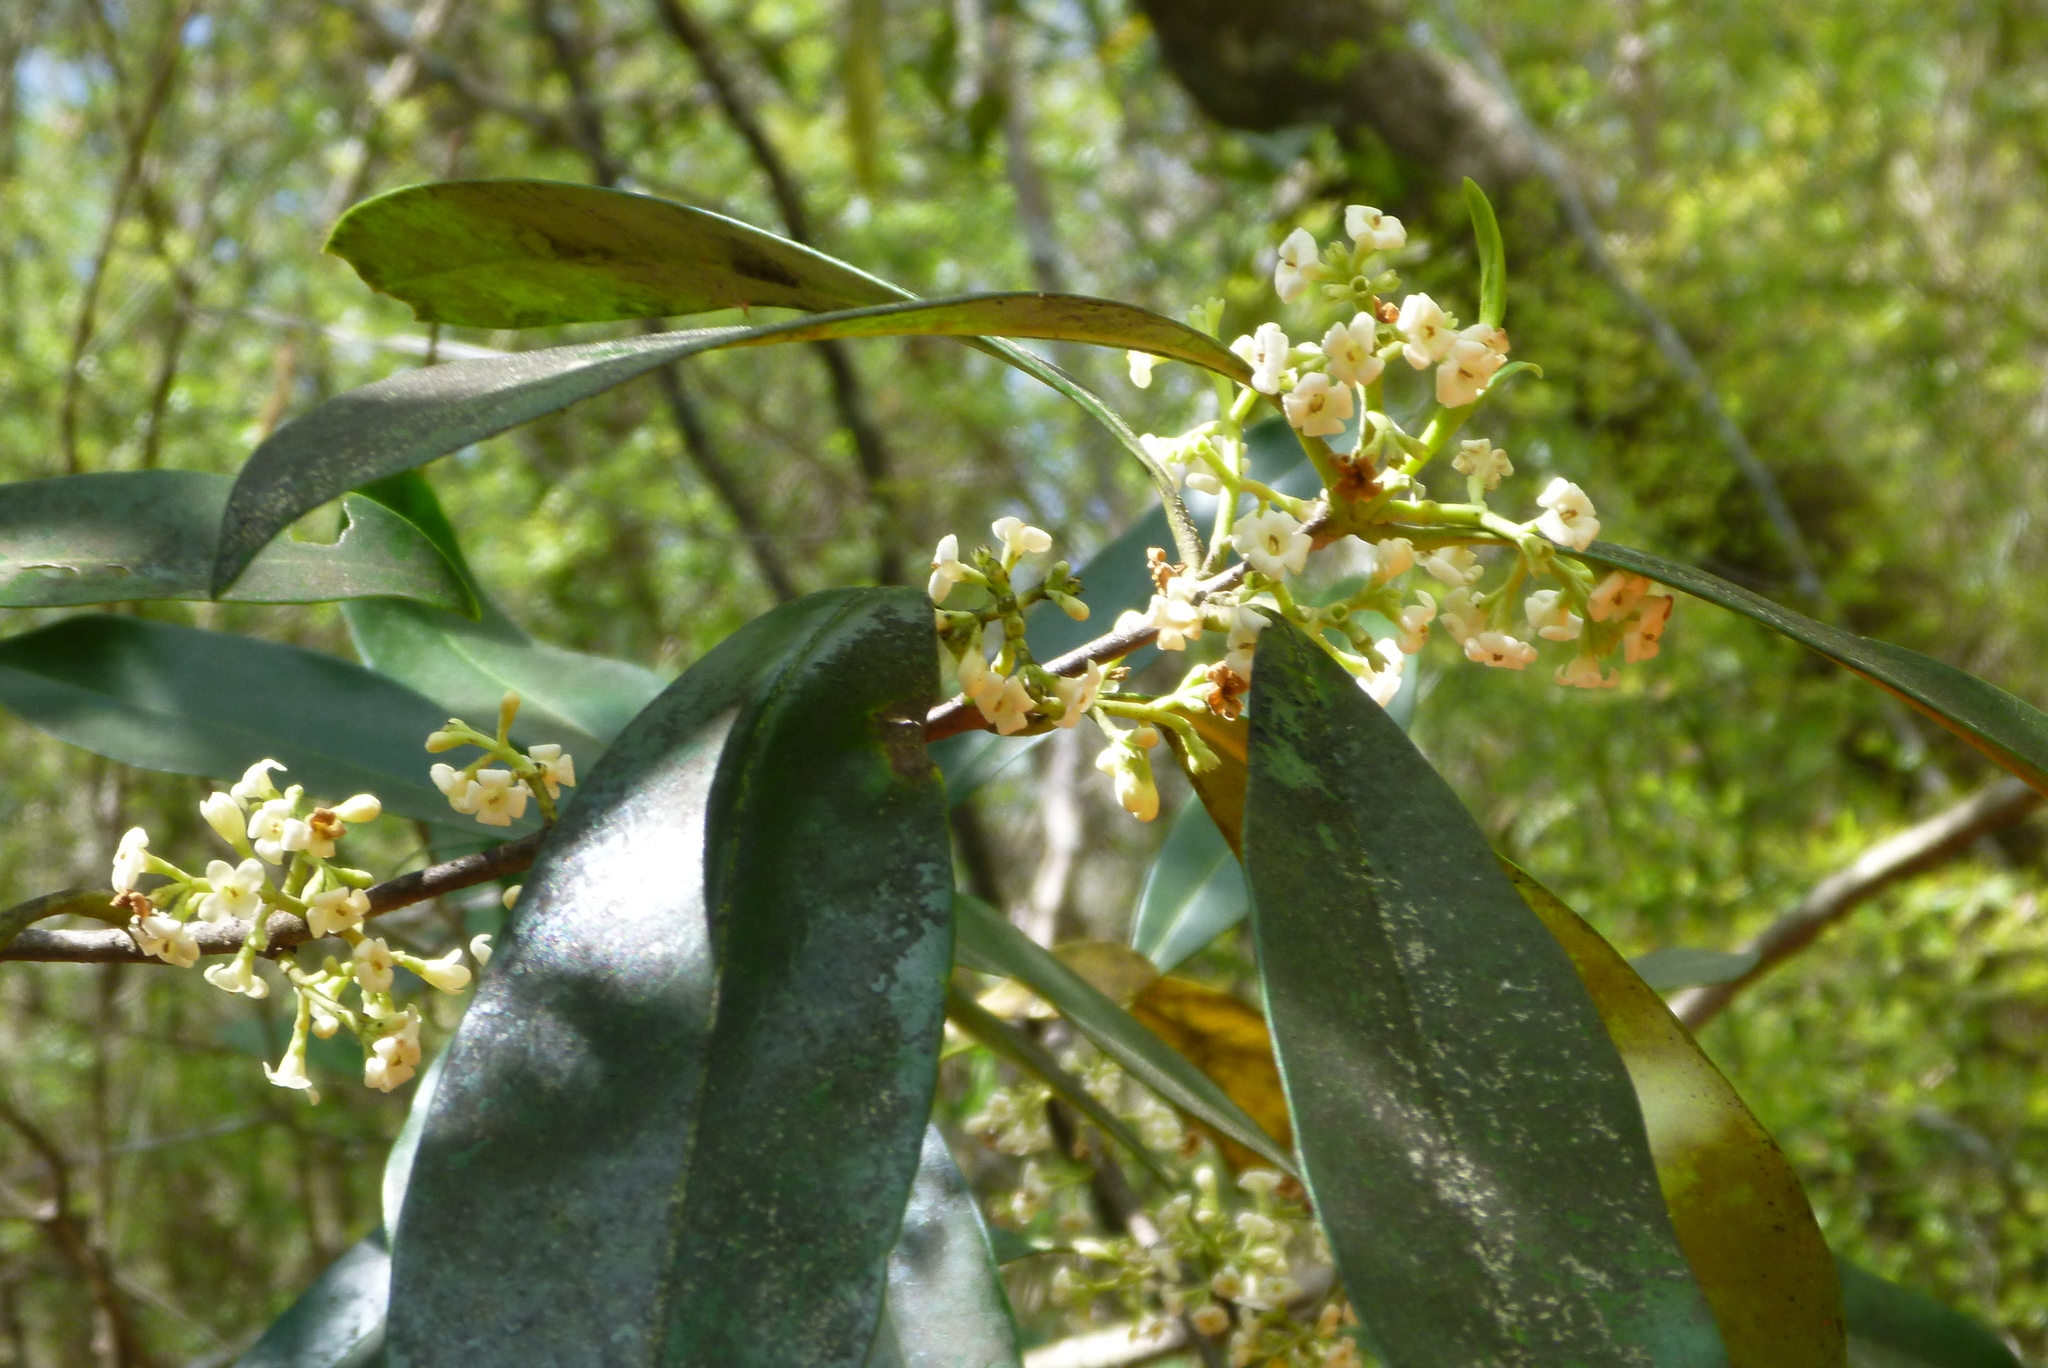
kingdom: Plantae
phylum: Tracheophyta
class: Magnoliopsida
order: Lamiales
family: Oleaceae
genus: Cartrema
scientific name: Cartrema americana
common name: Devilwood
